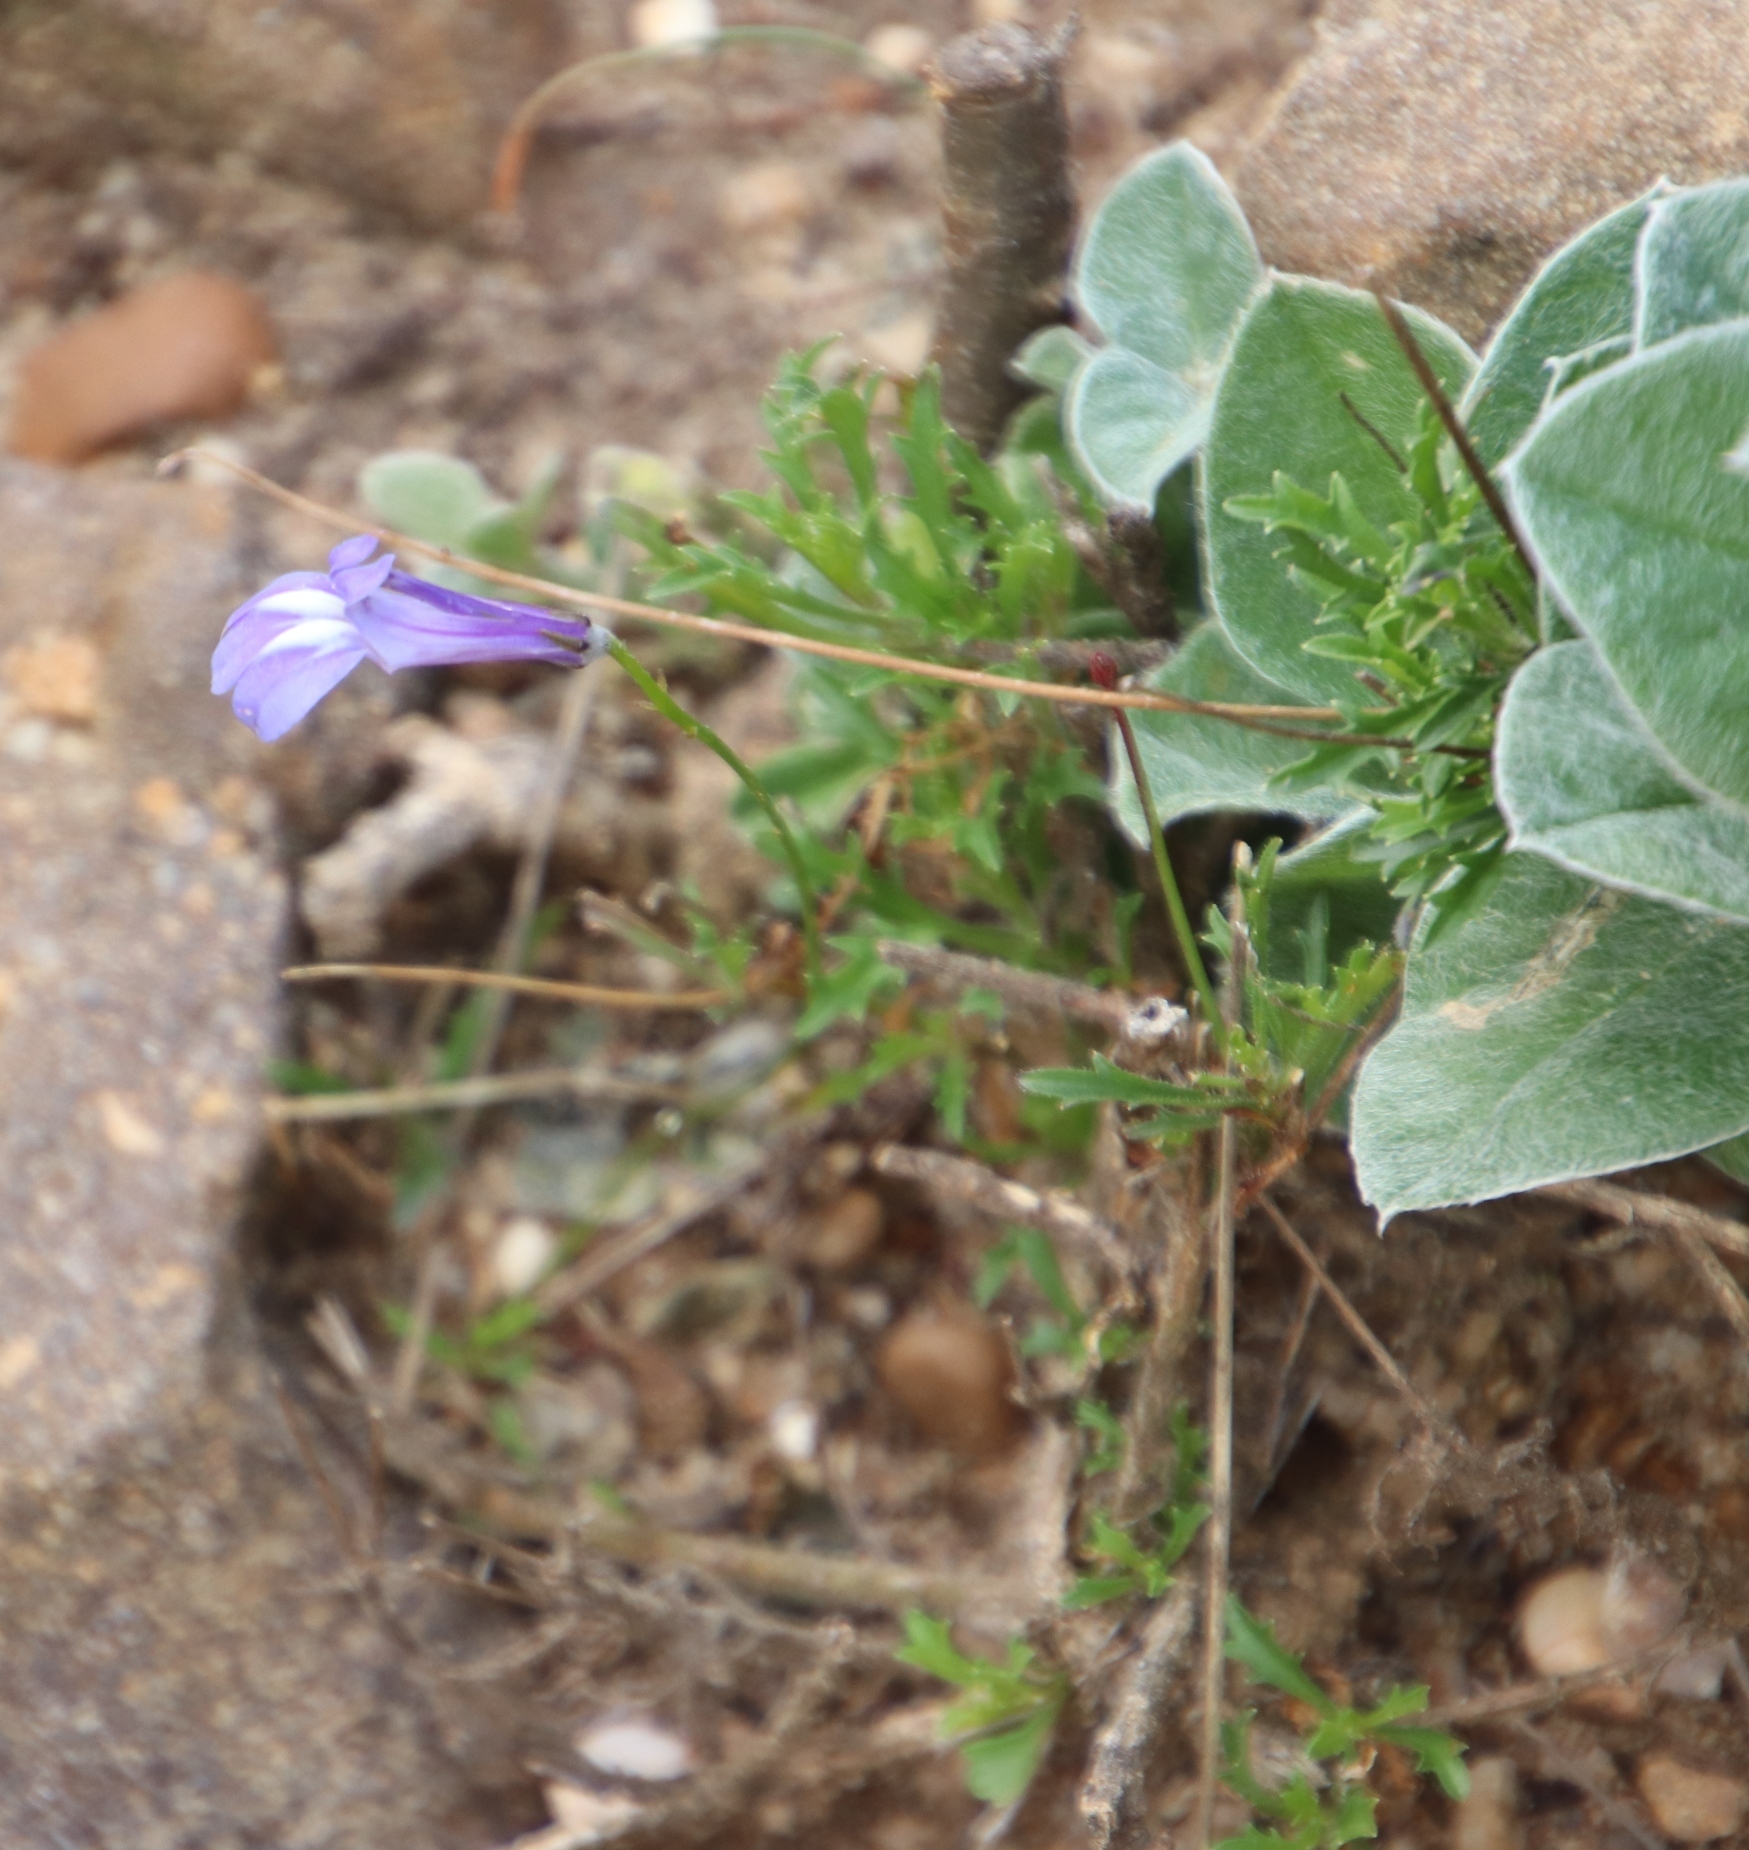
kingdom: Plantae
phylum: Tracheophyta
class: Magnoliopsida
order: Asterales
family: Campanulaceae
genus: Lobelia
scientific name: Lobelia coronopifolia
